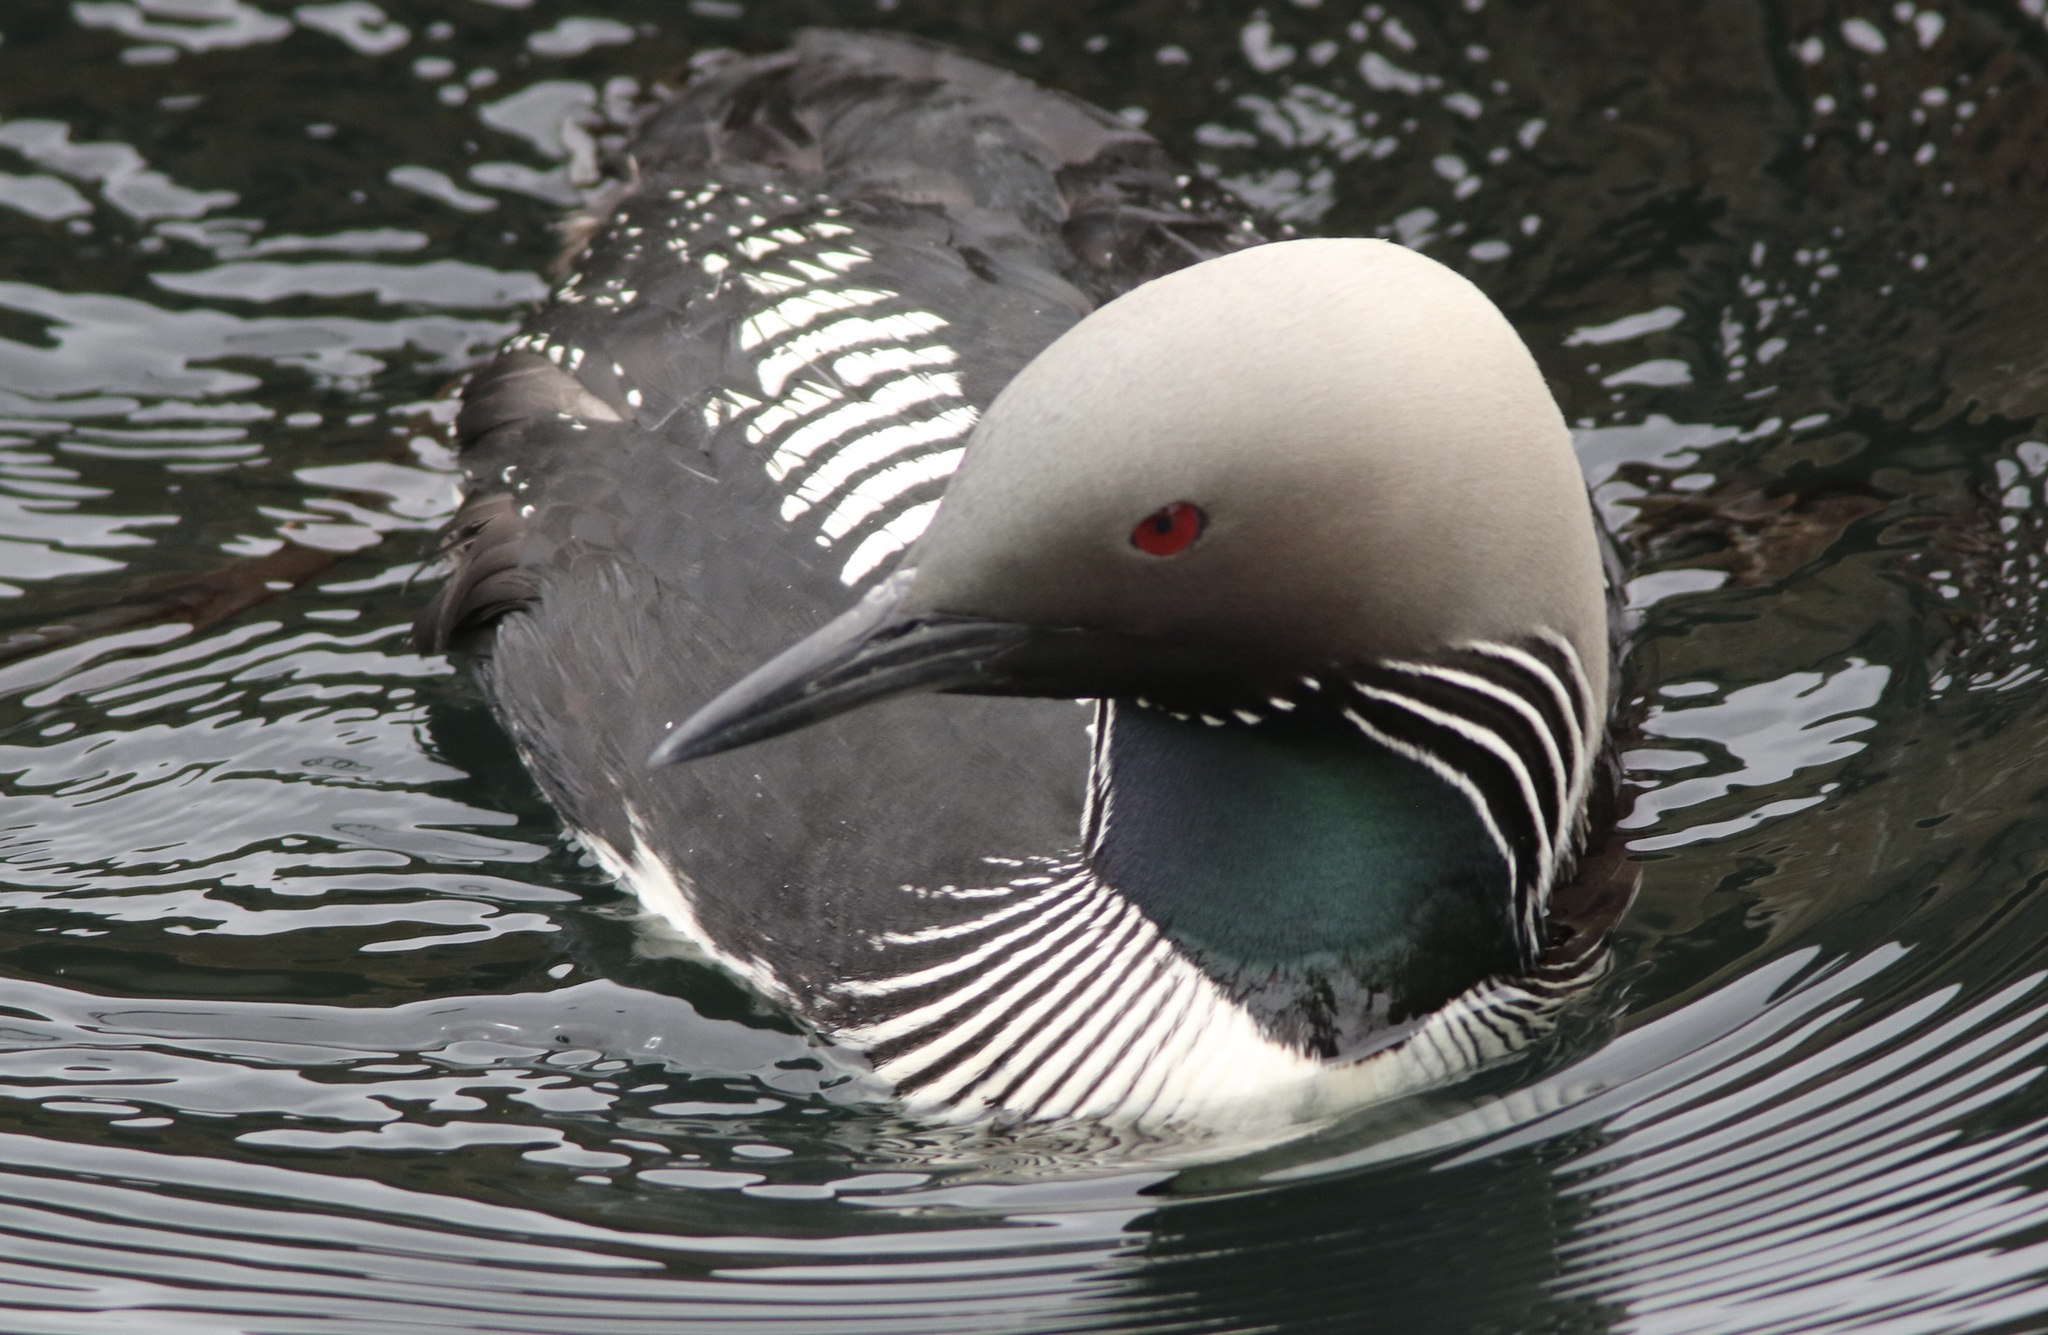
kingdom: Animalia
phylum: Chordata
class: Aves
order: Gaviiformes
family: Gaviidae
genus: Gavia
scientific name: Gavia pacifica
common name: Pacific loon
